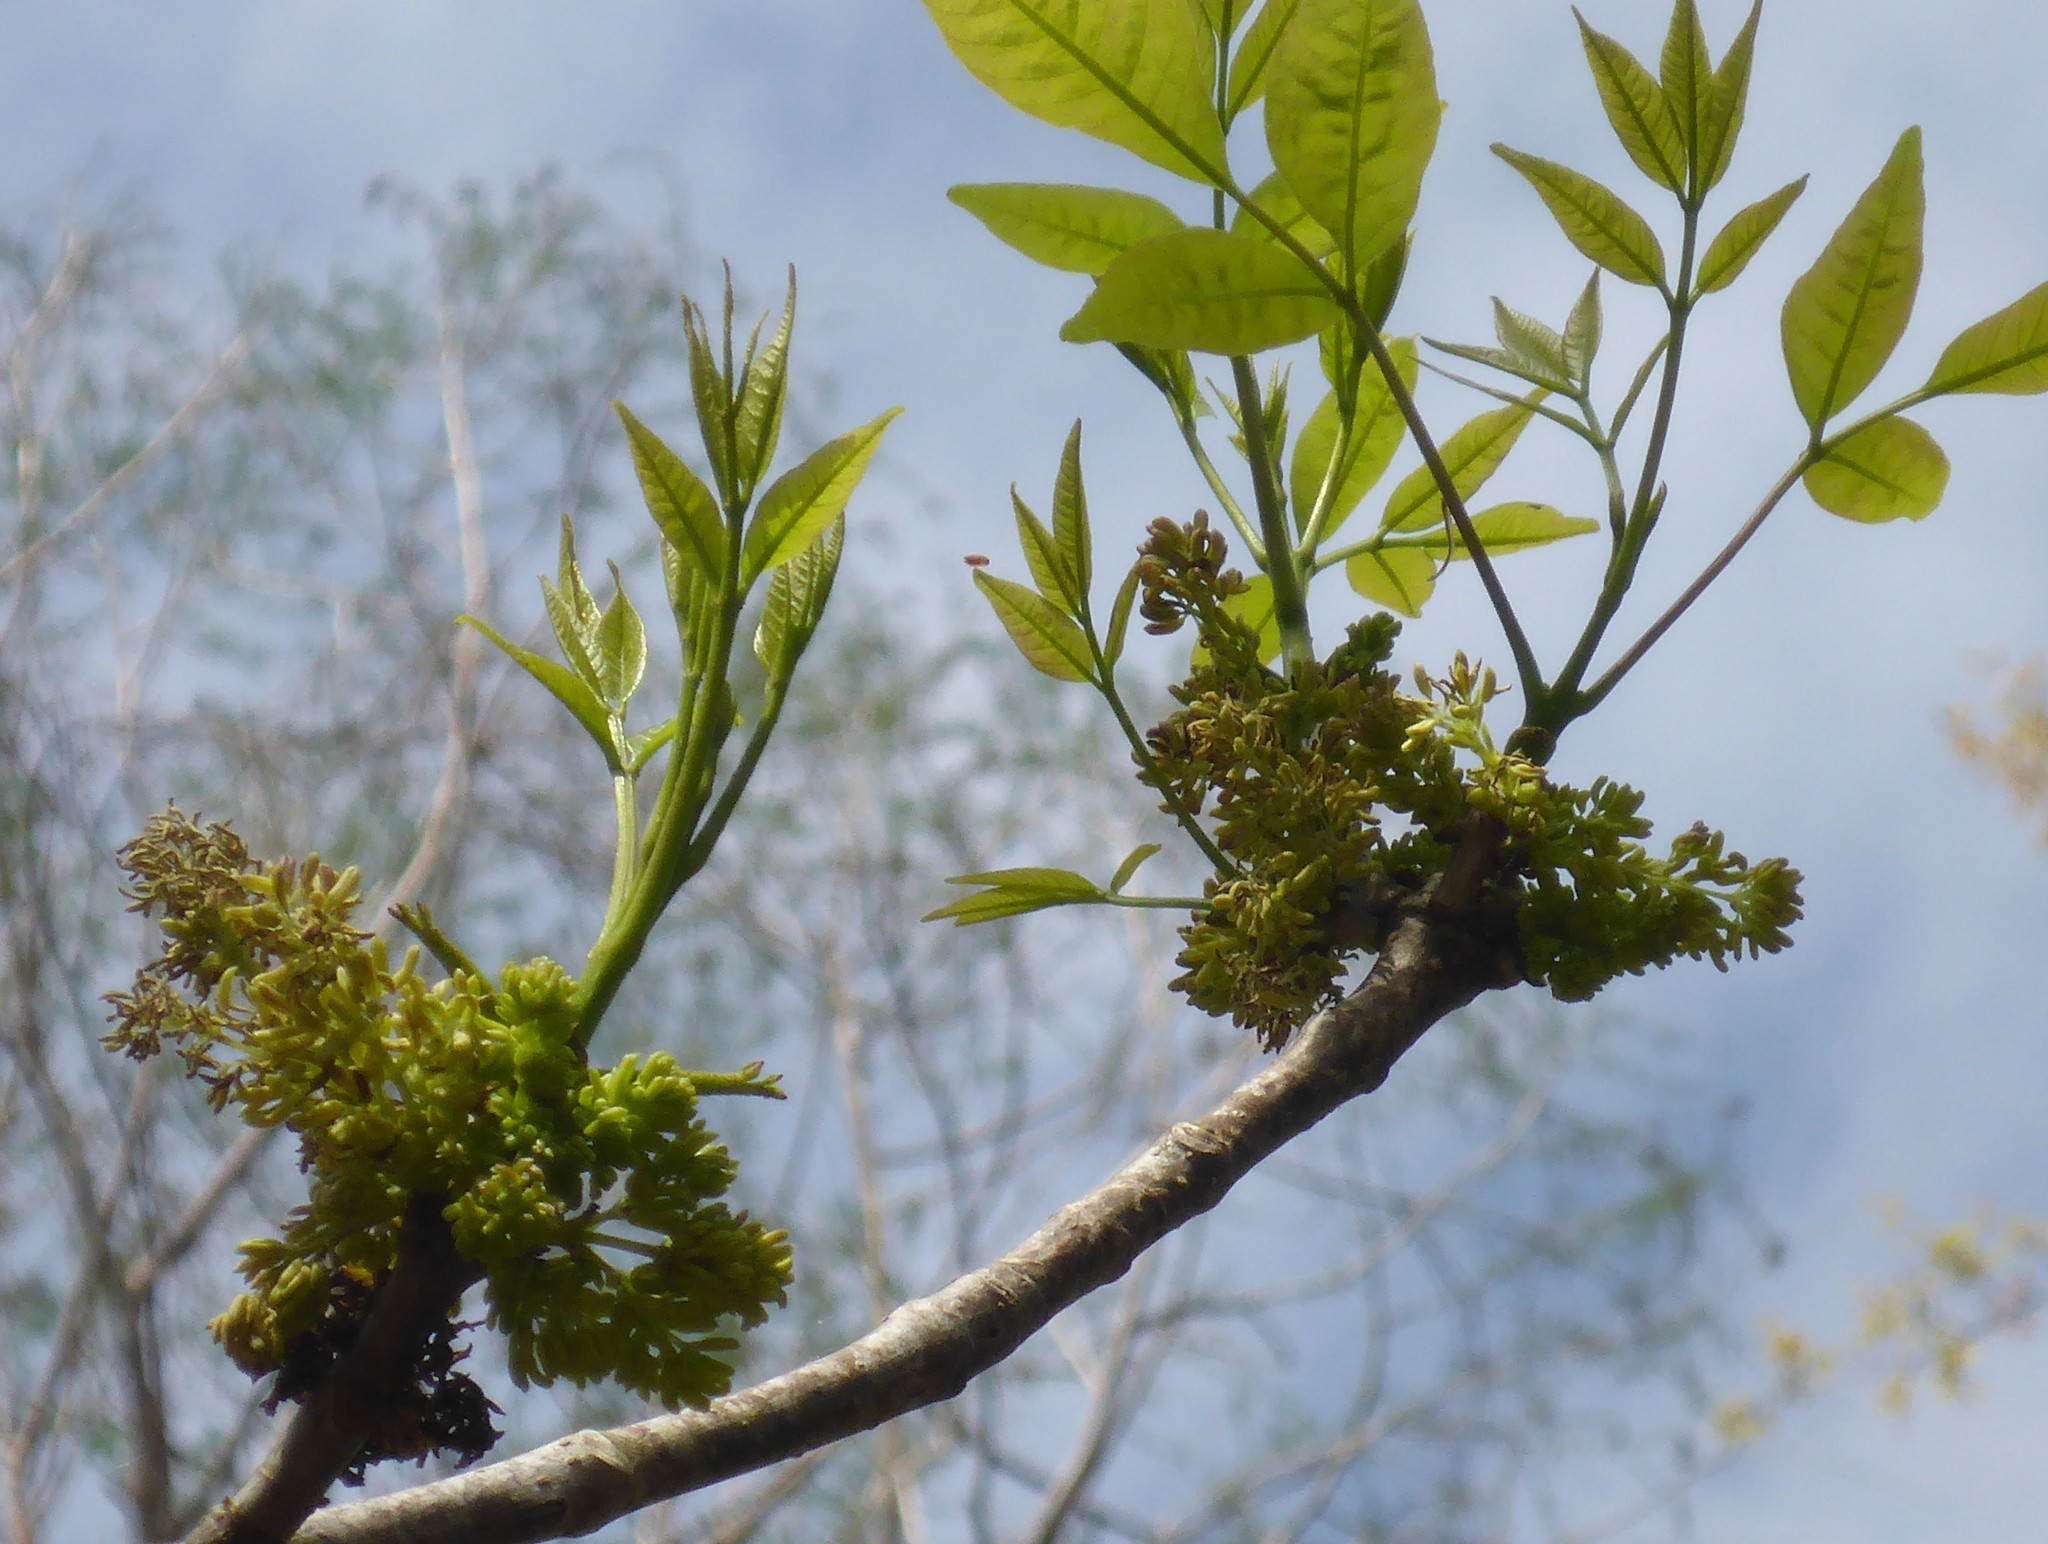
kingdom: Plantae
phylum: Tracheophyta
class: Magnoliopsida
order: Lamiales
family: Oleaceae
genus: Fraxinus
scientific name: Fraxinus profunda
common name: Pumpkin ash
